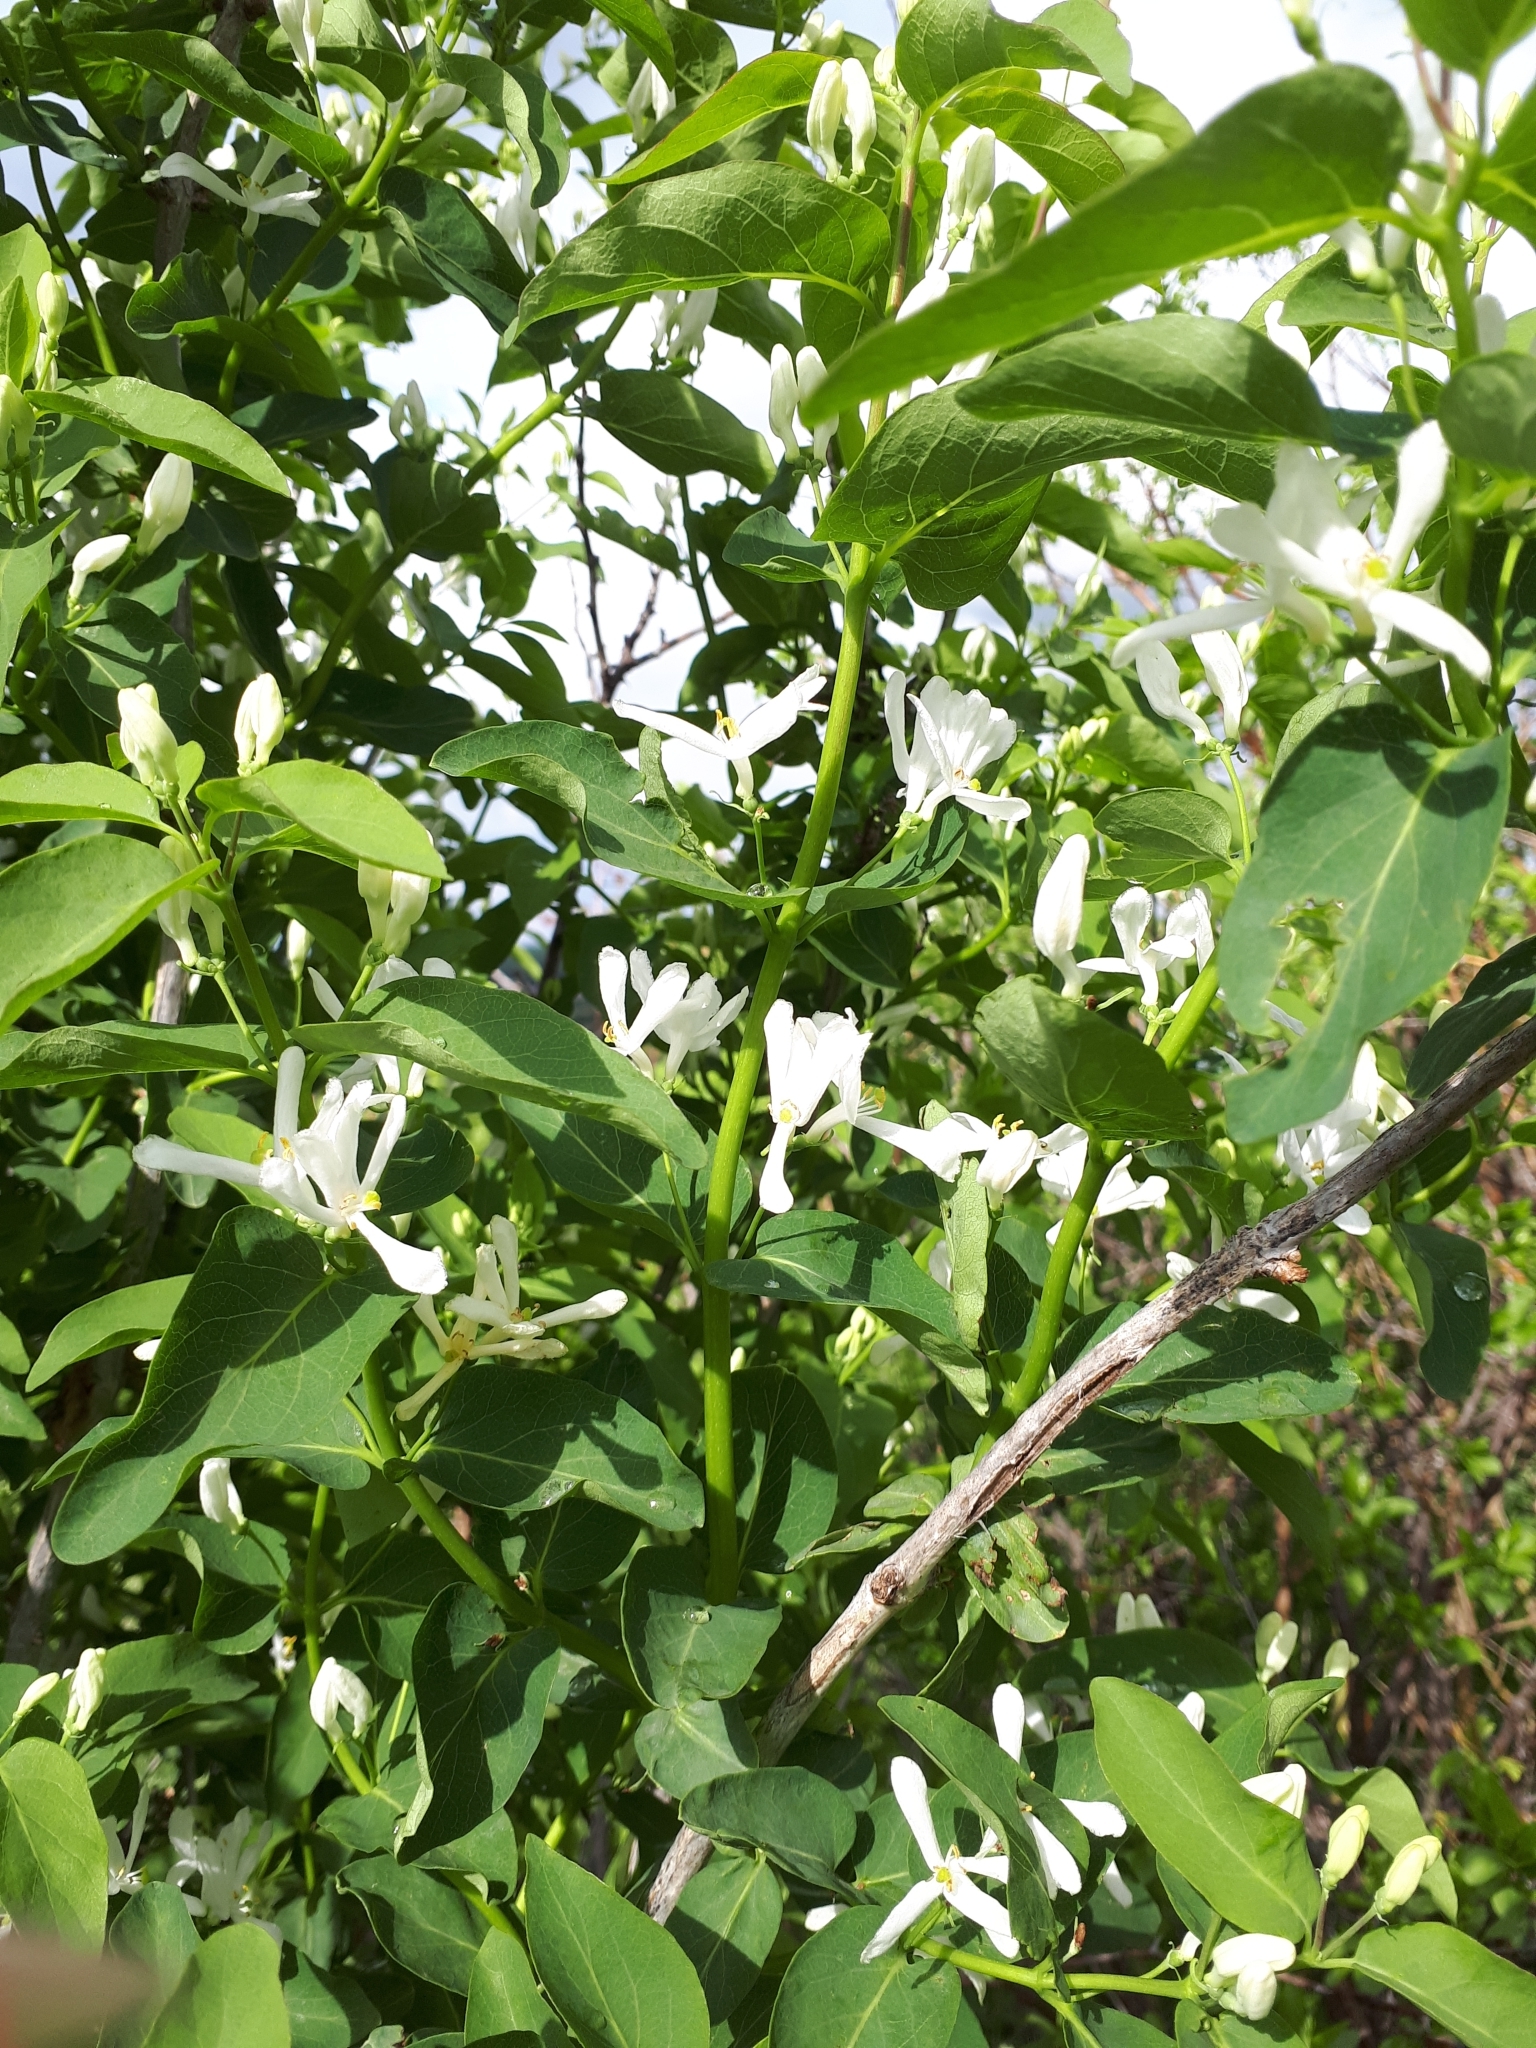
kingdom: Plantae
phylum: Tracheophyta
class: Magnoliopsida
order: Dipsacales
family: Caprifoliaceae
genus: Lonicera
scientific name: Lonicera tatarica
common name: Tatarian honeysuckle
